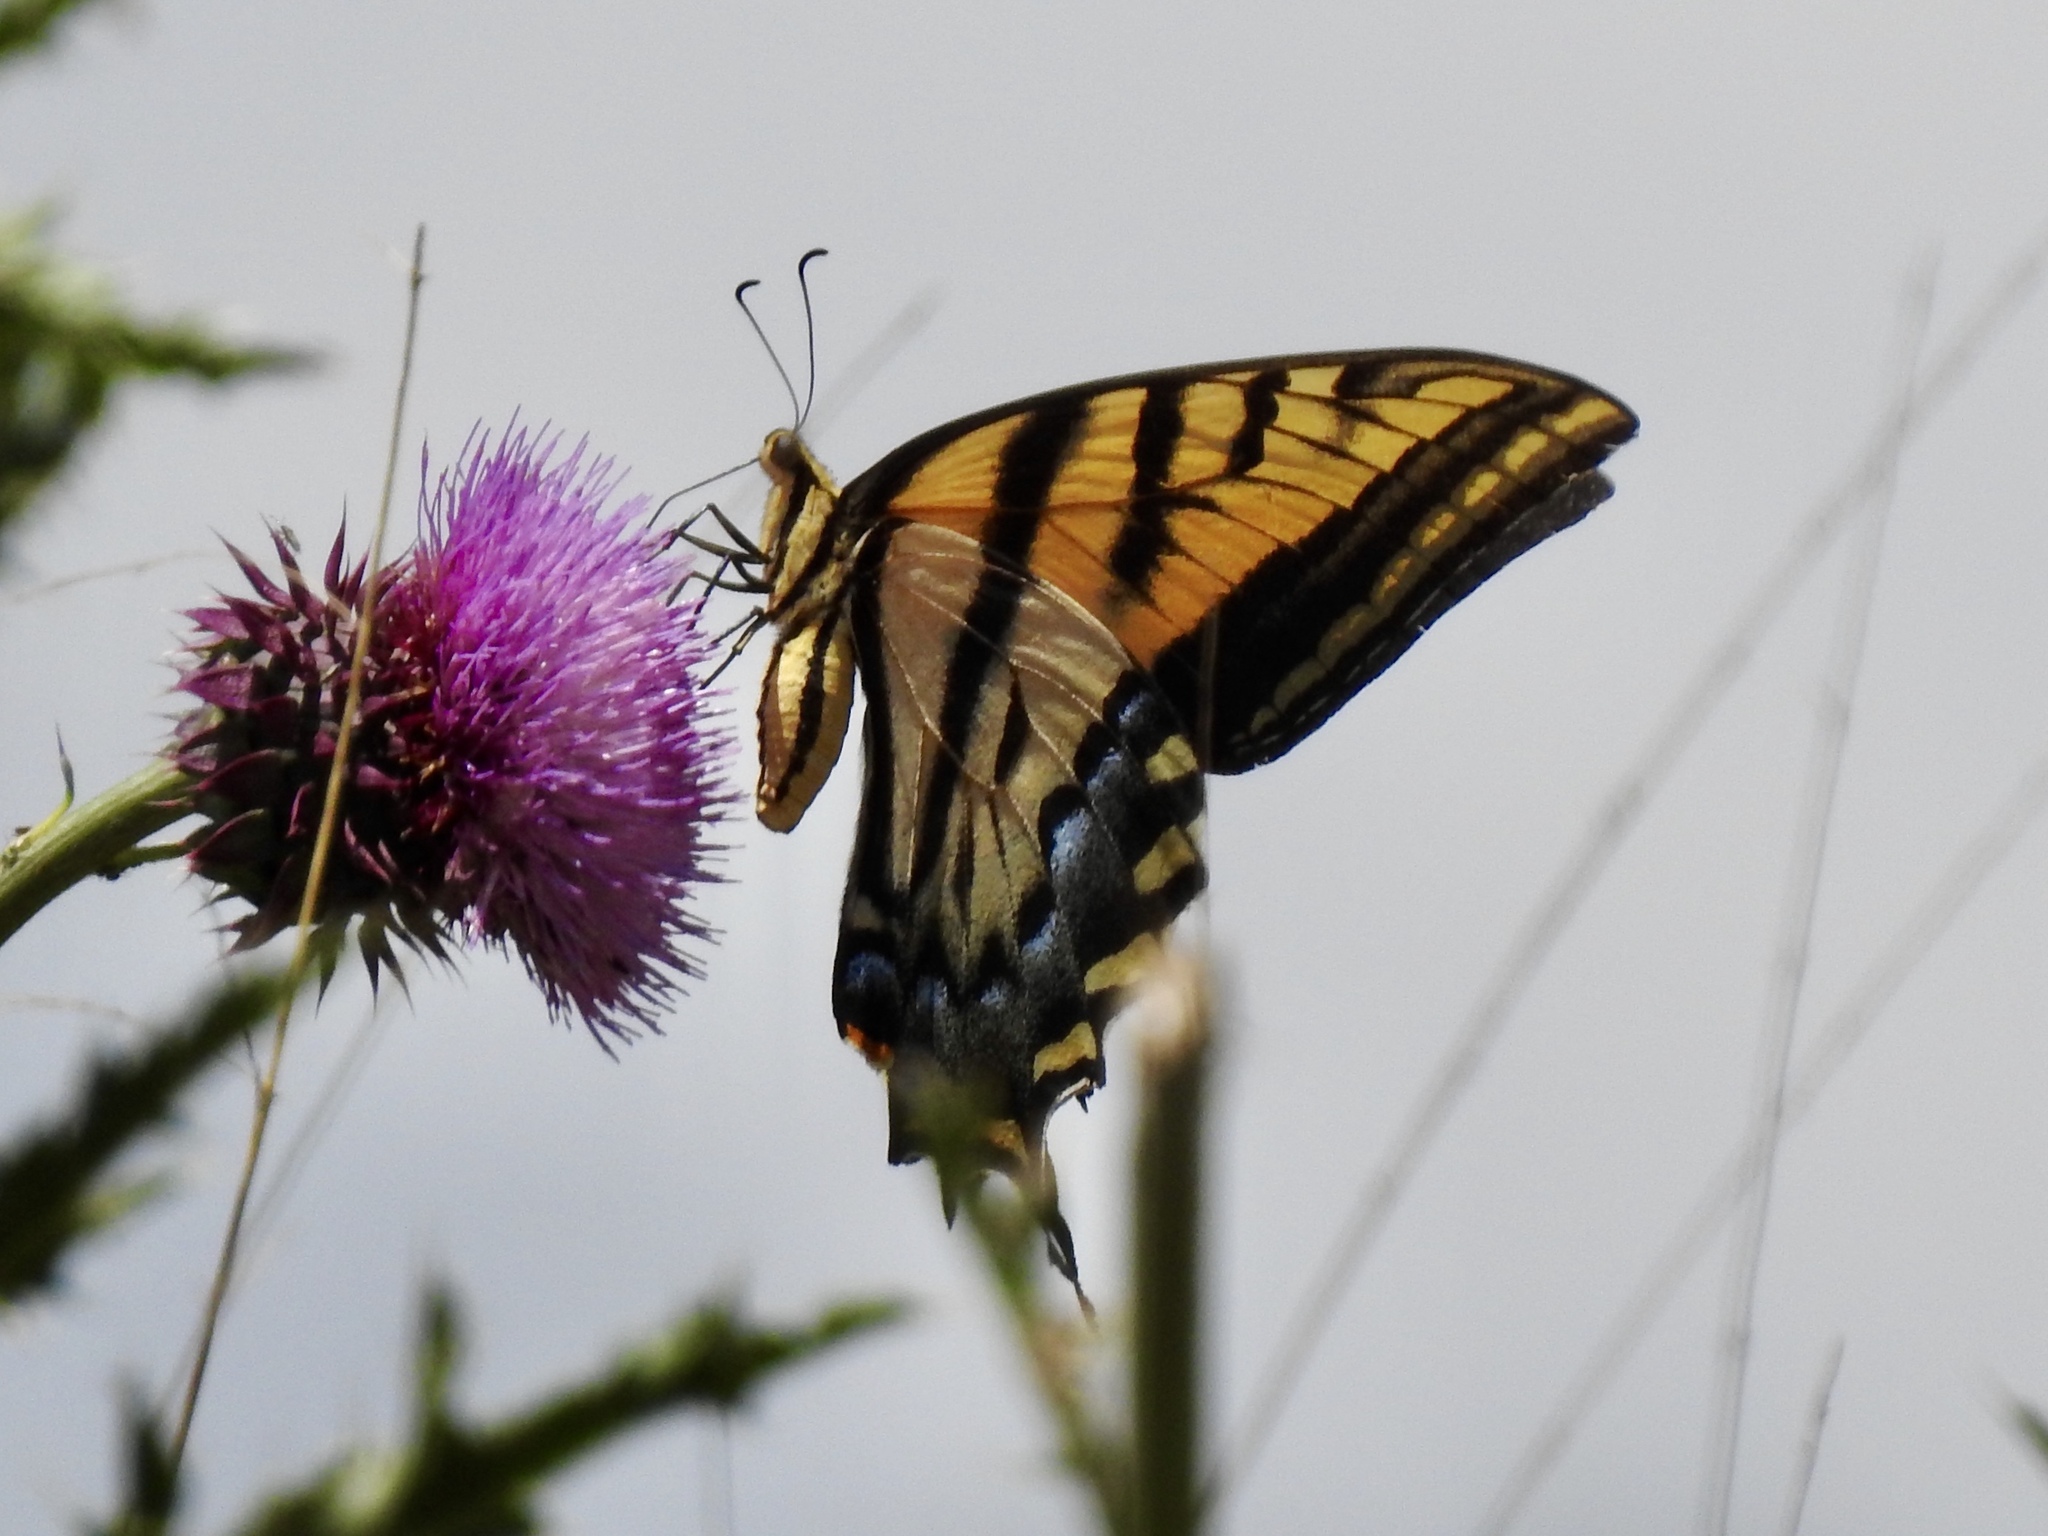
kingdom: Animalia
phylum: Arthropoda
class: Insecta
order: Lepidoptera
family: Papilionidae
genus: Papilio
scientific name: Papilio multicaudata
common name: Two-tailed tiger swallowtail
